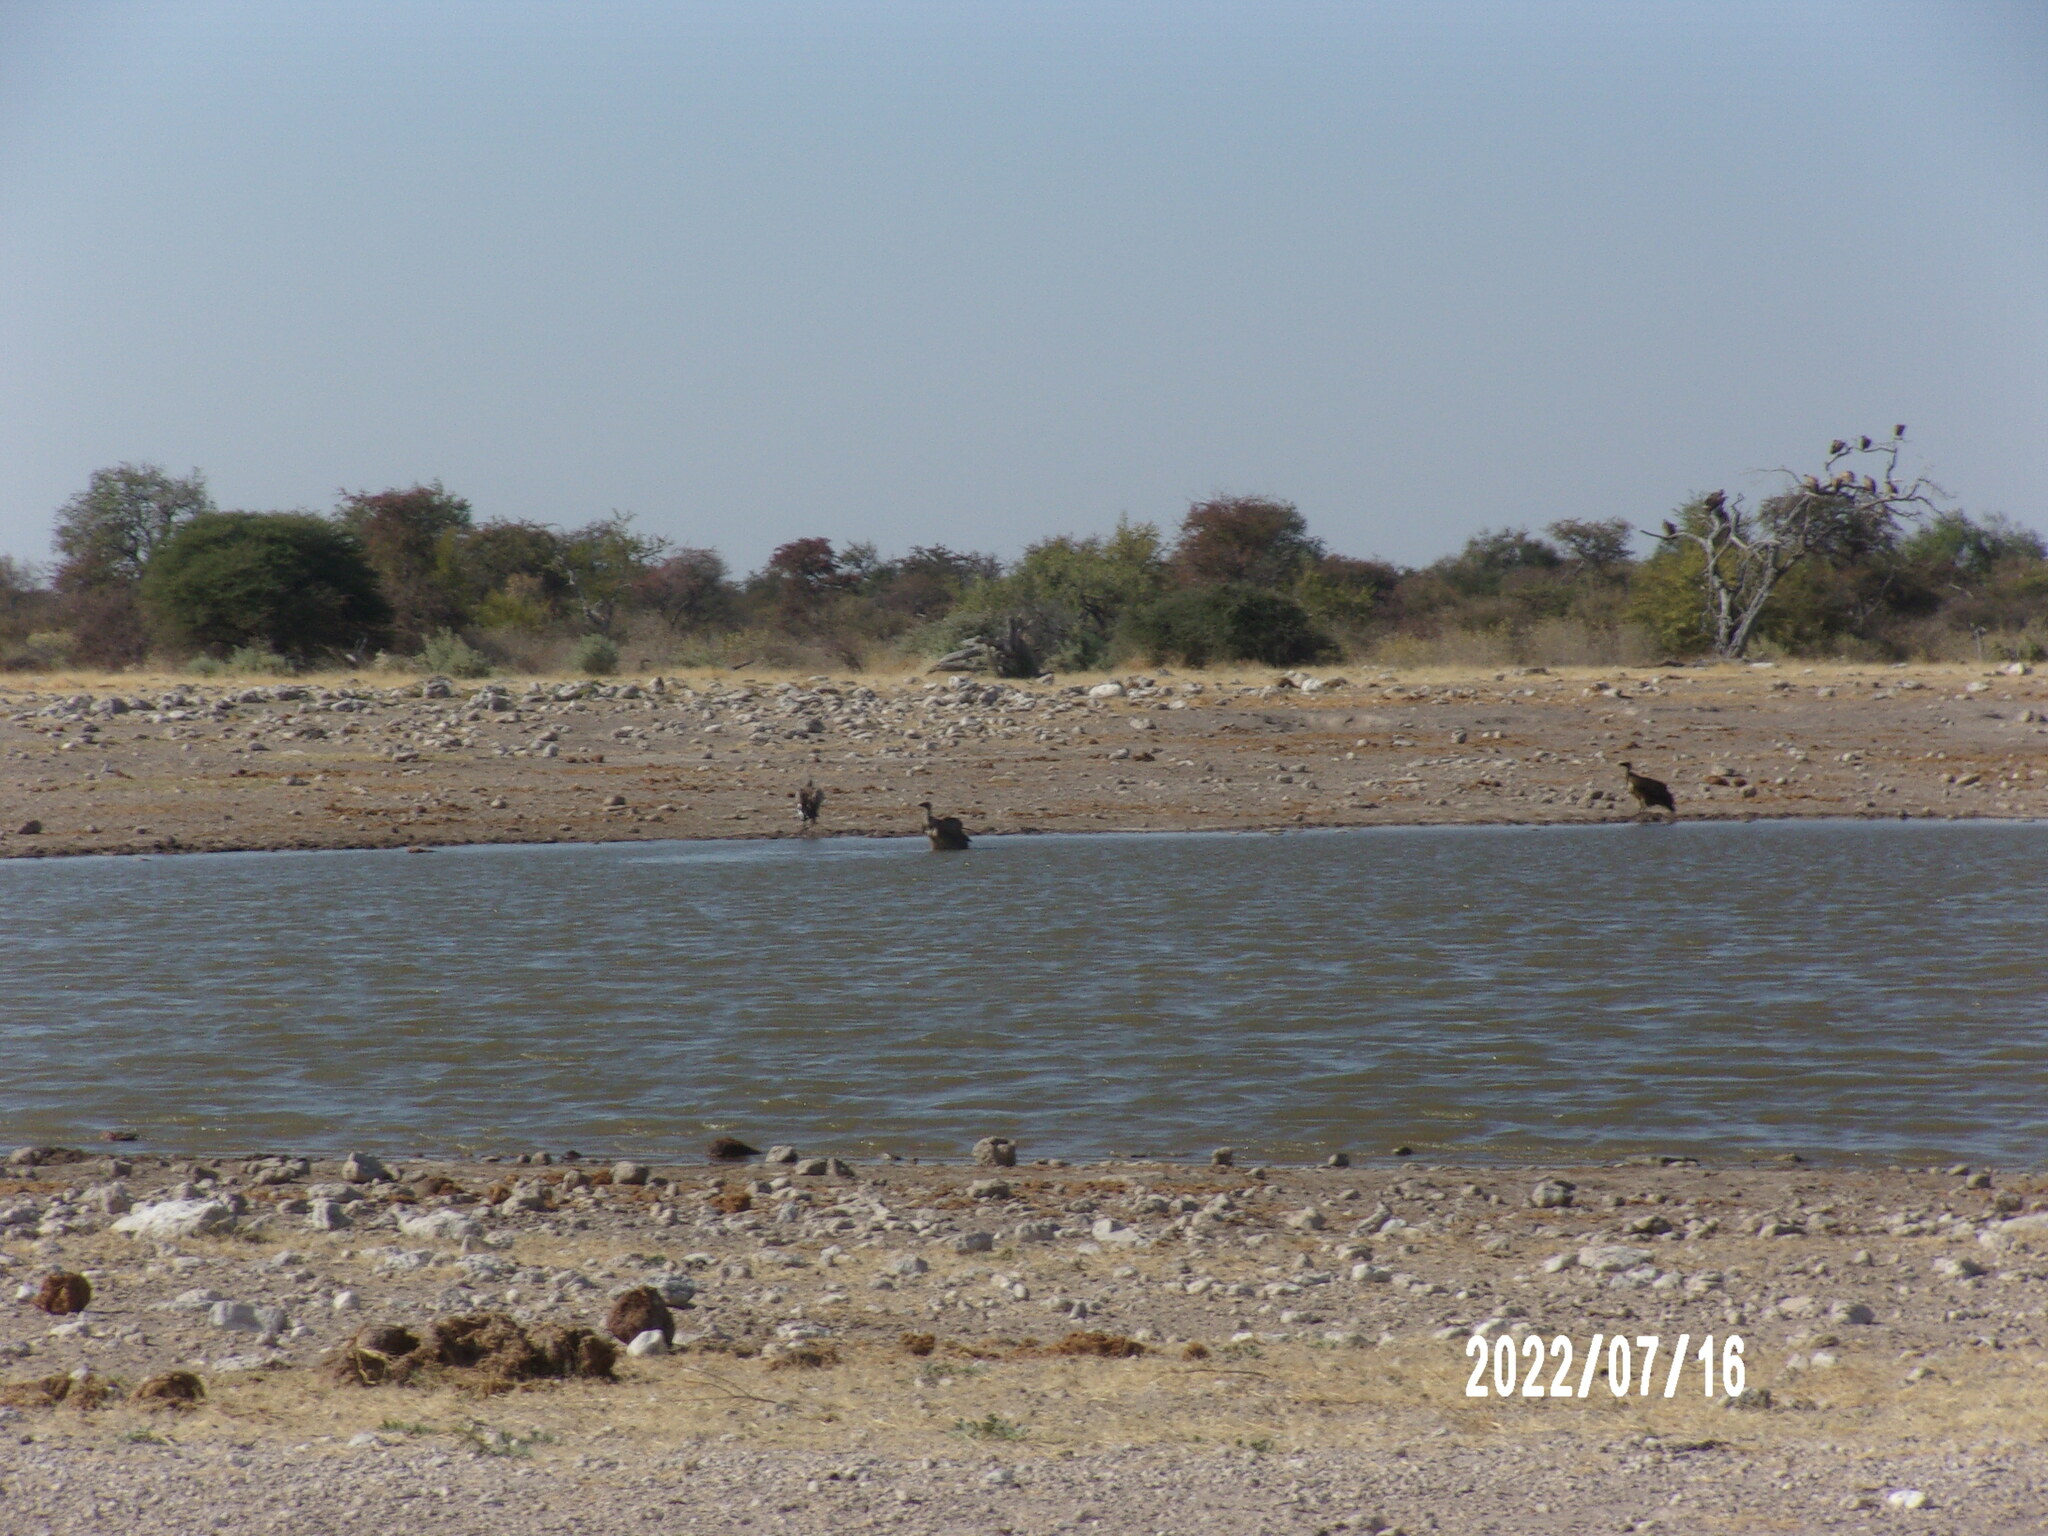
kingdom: Animalia
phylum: Chordata
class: Aves
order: Accipitriformes
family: Accipitridae
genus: Gyps
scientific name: Gyps africanus
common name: White-backed vulture
